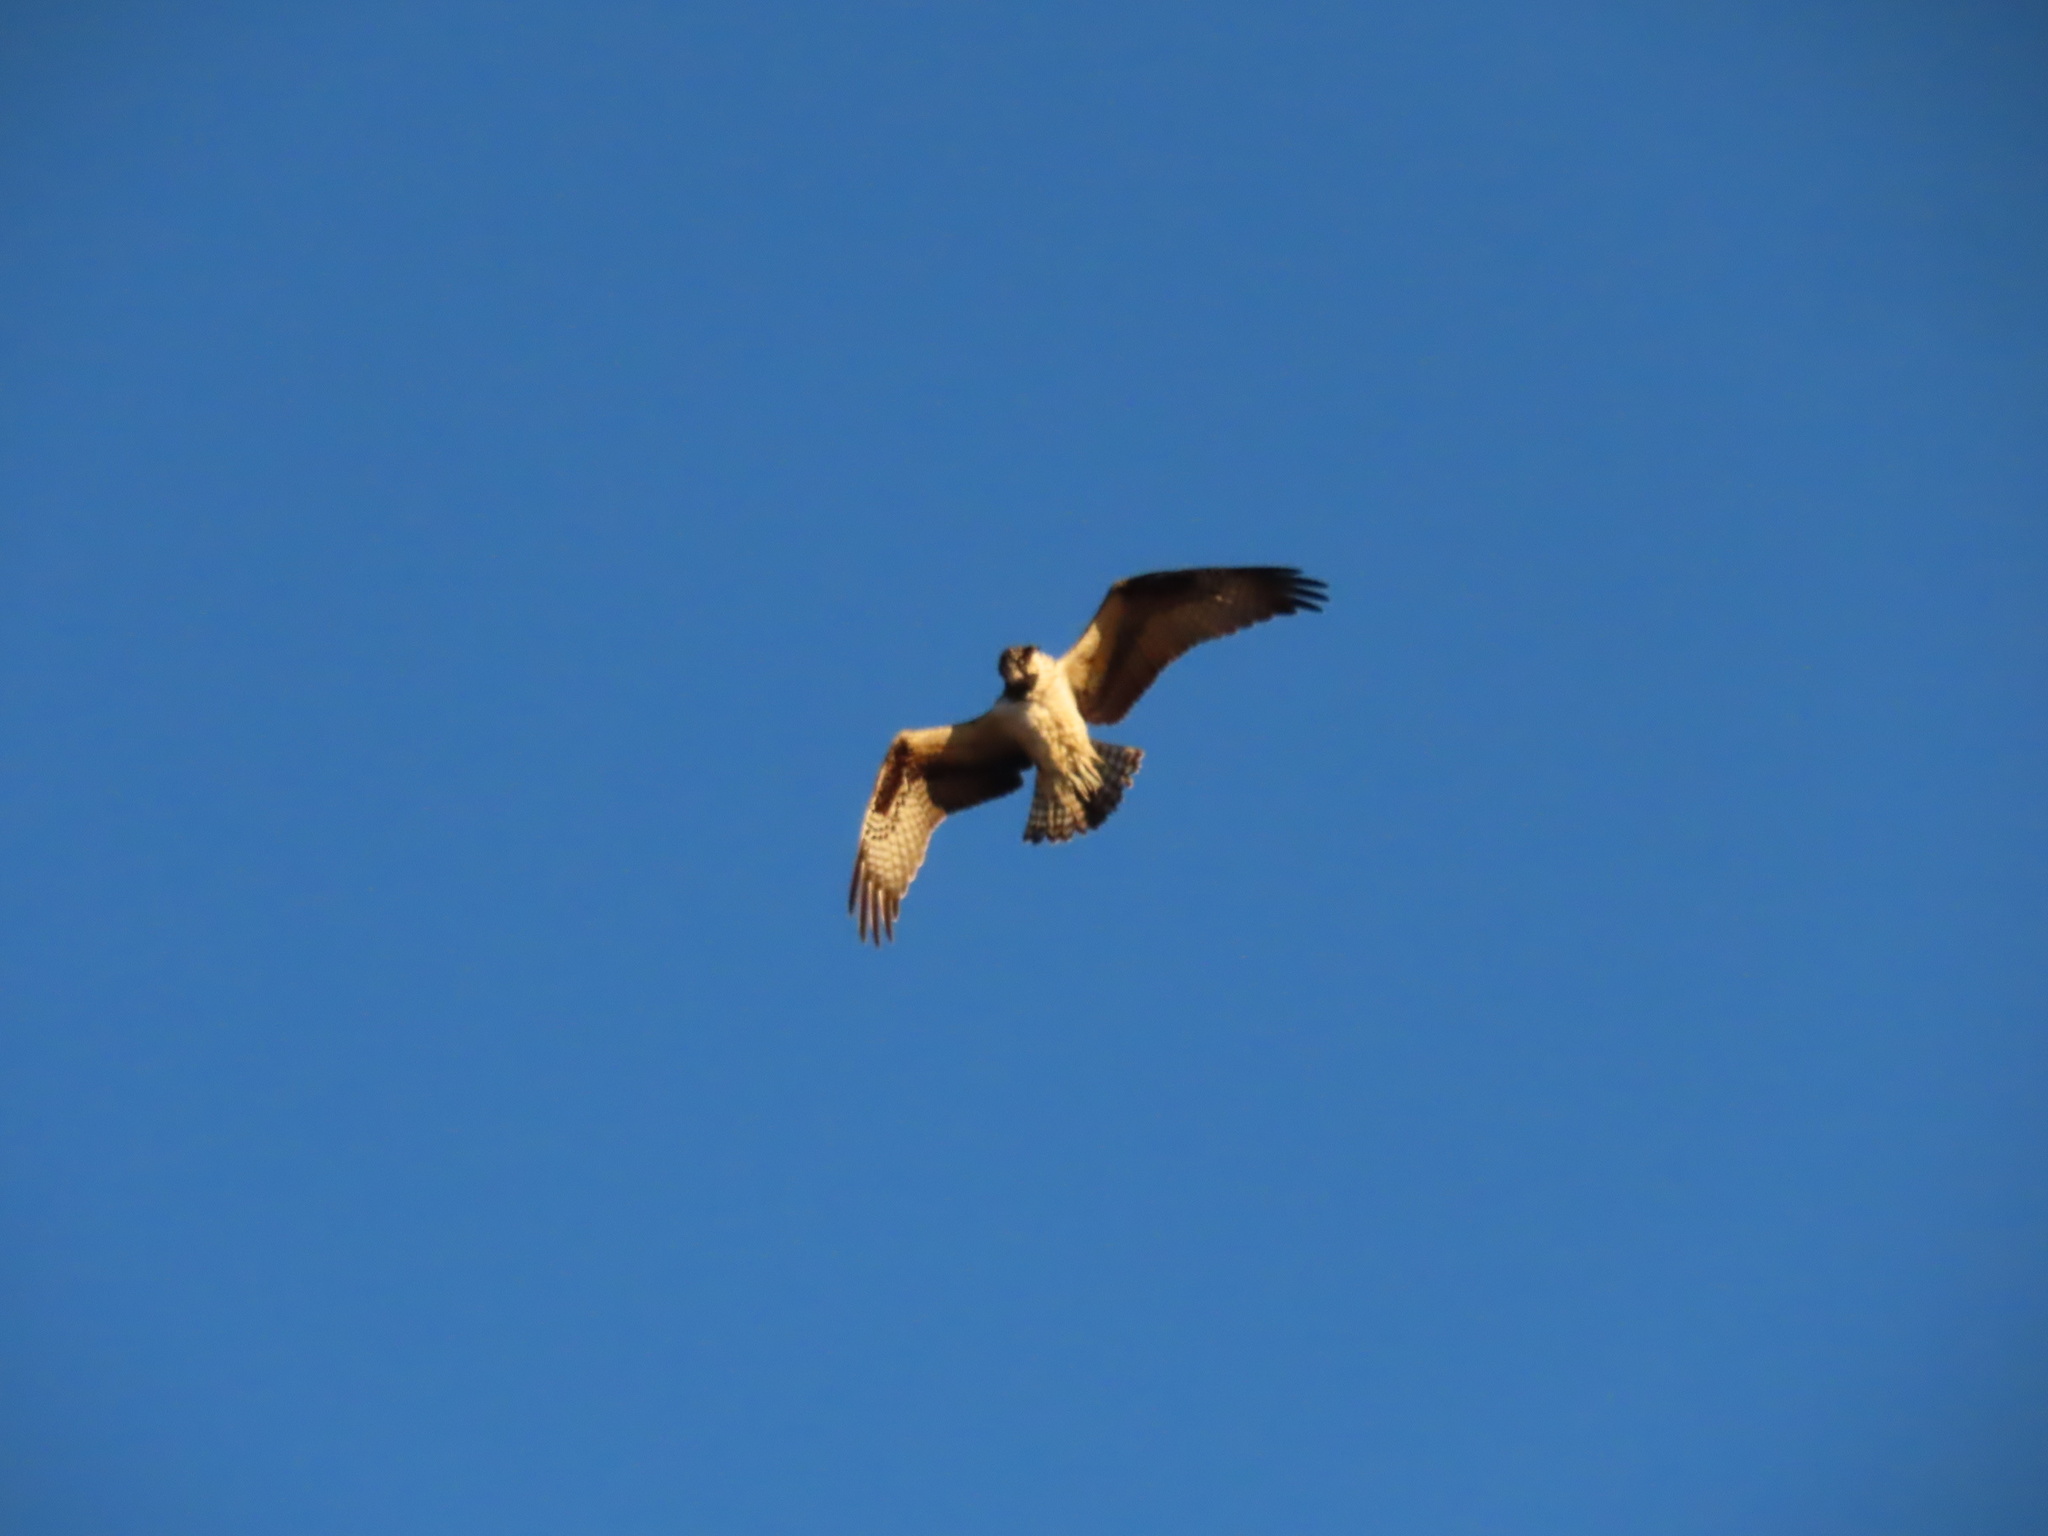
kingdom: Animalia
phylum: Chordata
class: Aves
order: Accipitriformes
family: Pandionidae
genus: Pandion
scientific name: Pandion haliaetus
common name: Osprey
